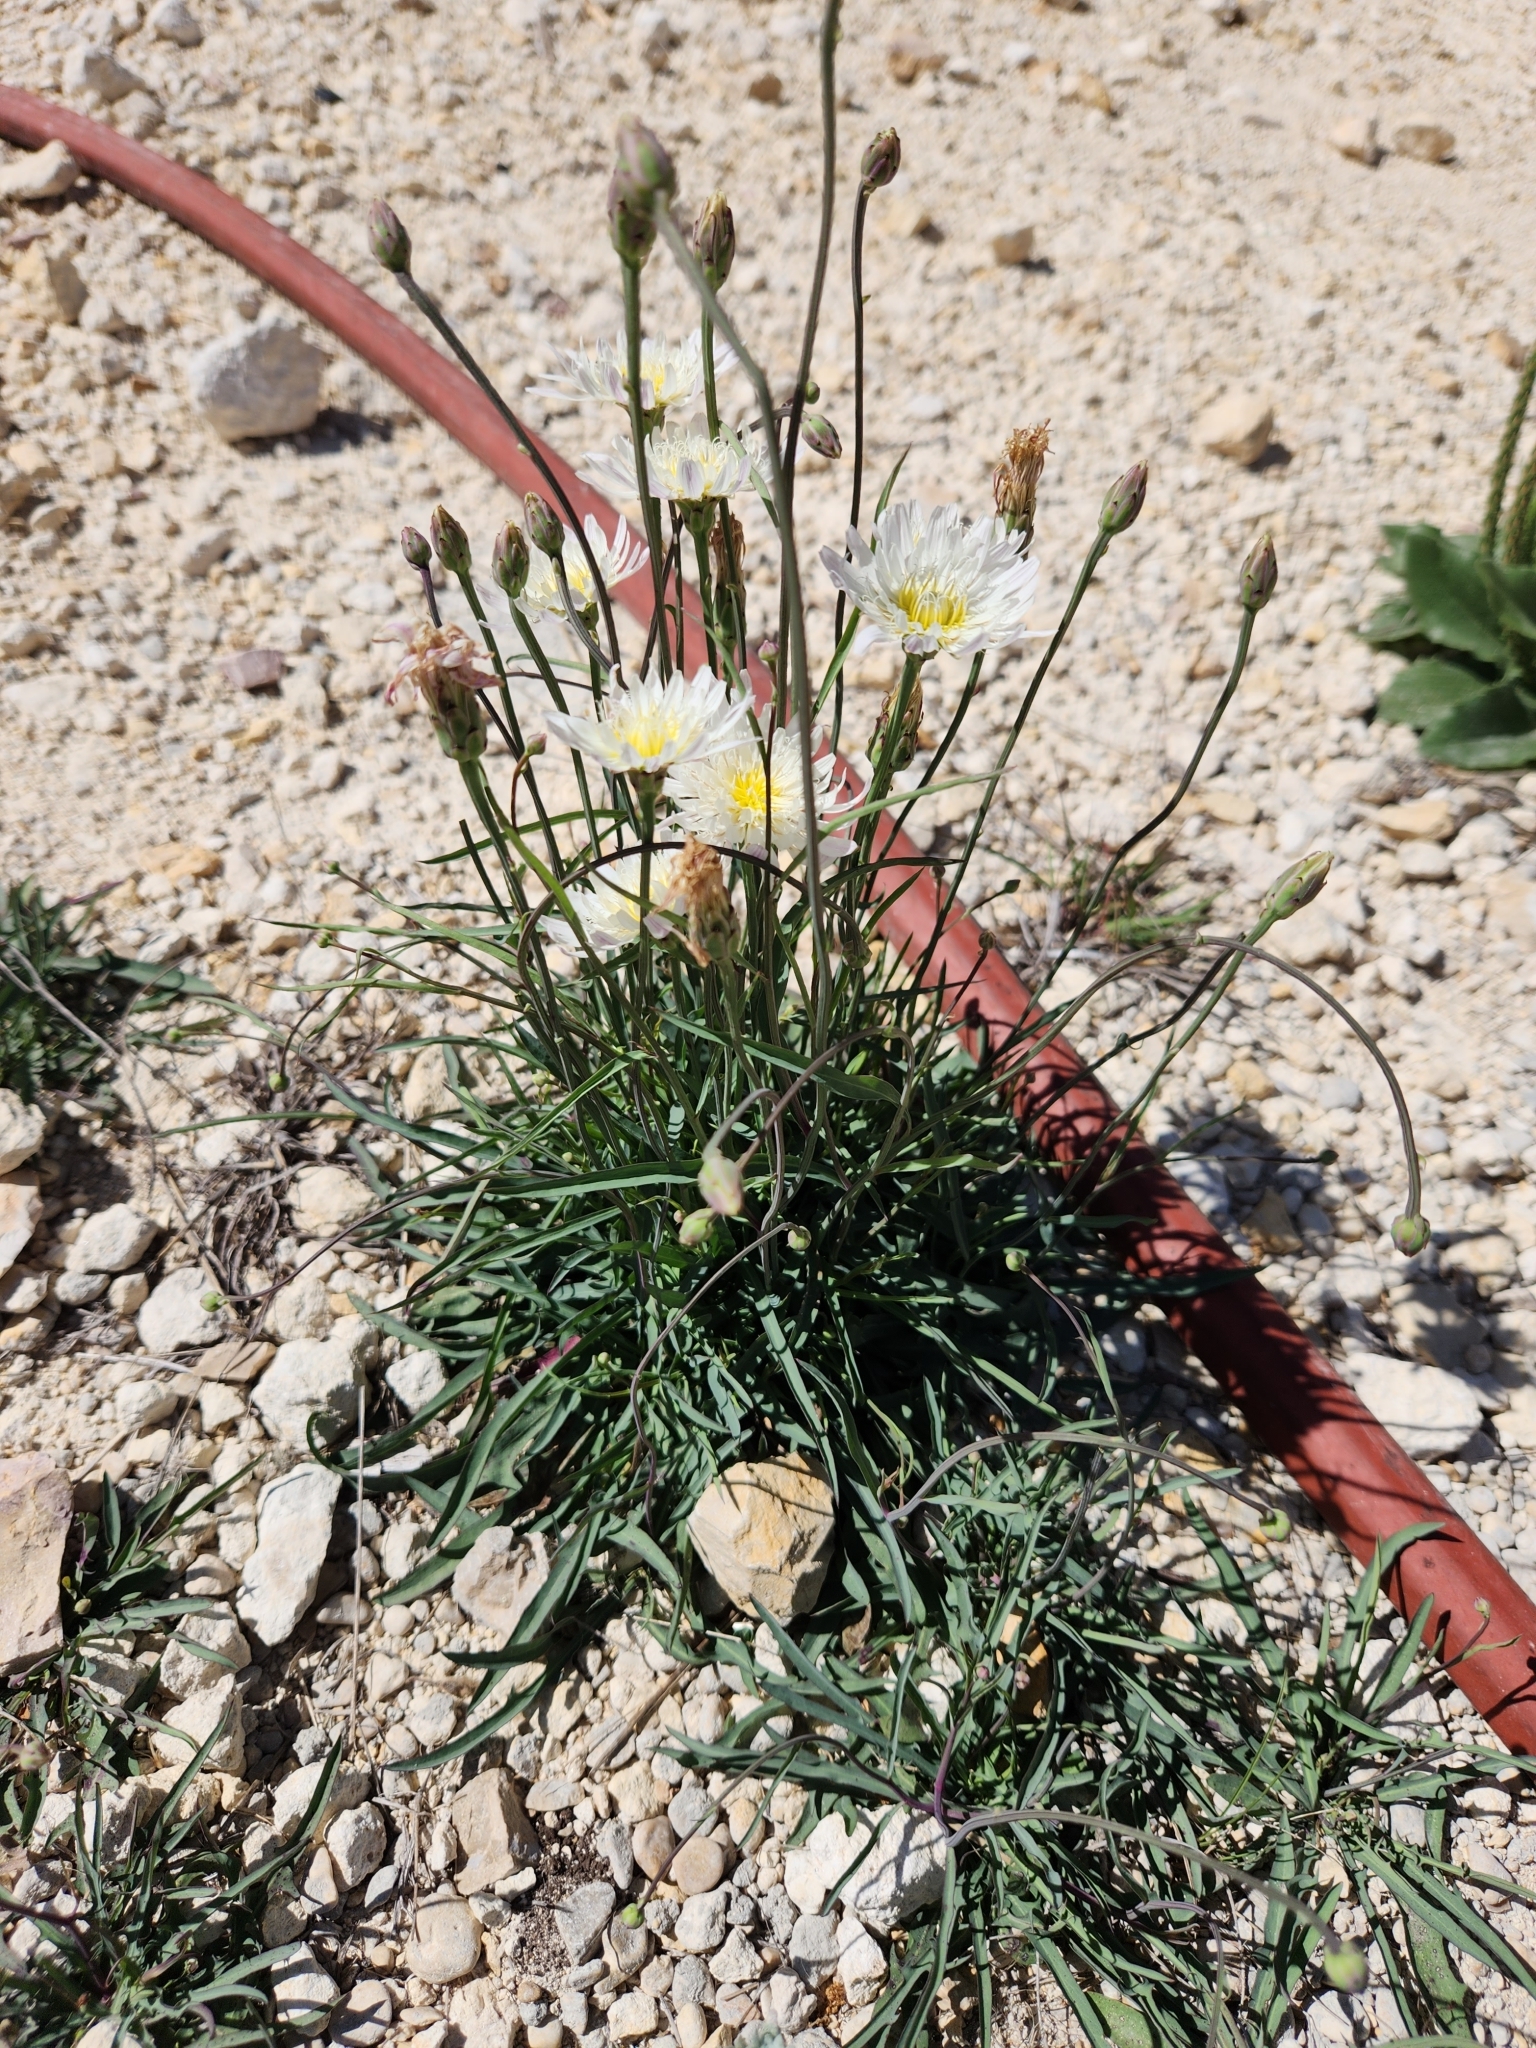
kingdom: Plantae
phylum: Tracheophyta
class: Magnoliopsida
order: Asterales
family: Asteraceae
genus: Pinaropappus
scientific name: Pinaropappus roseus
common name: Rock-lettuce
